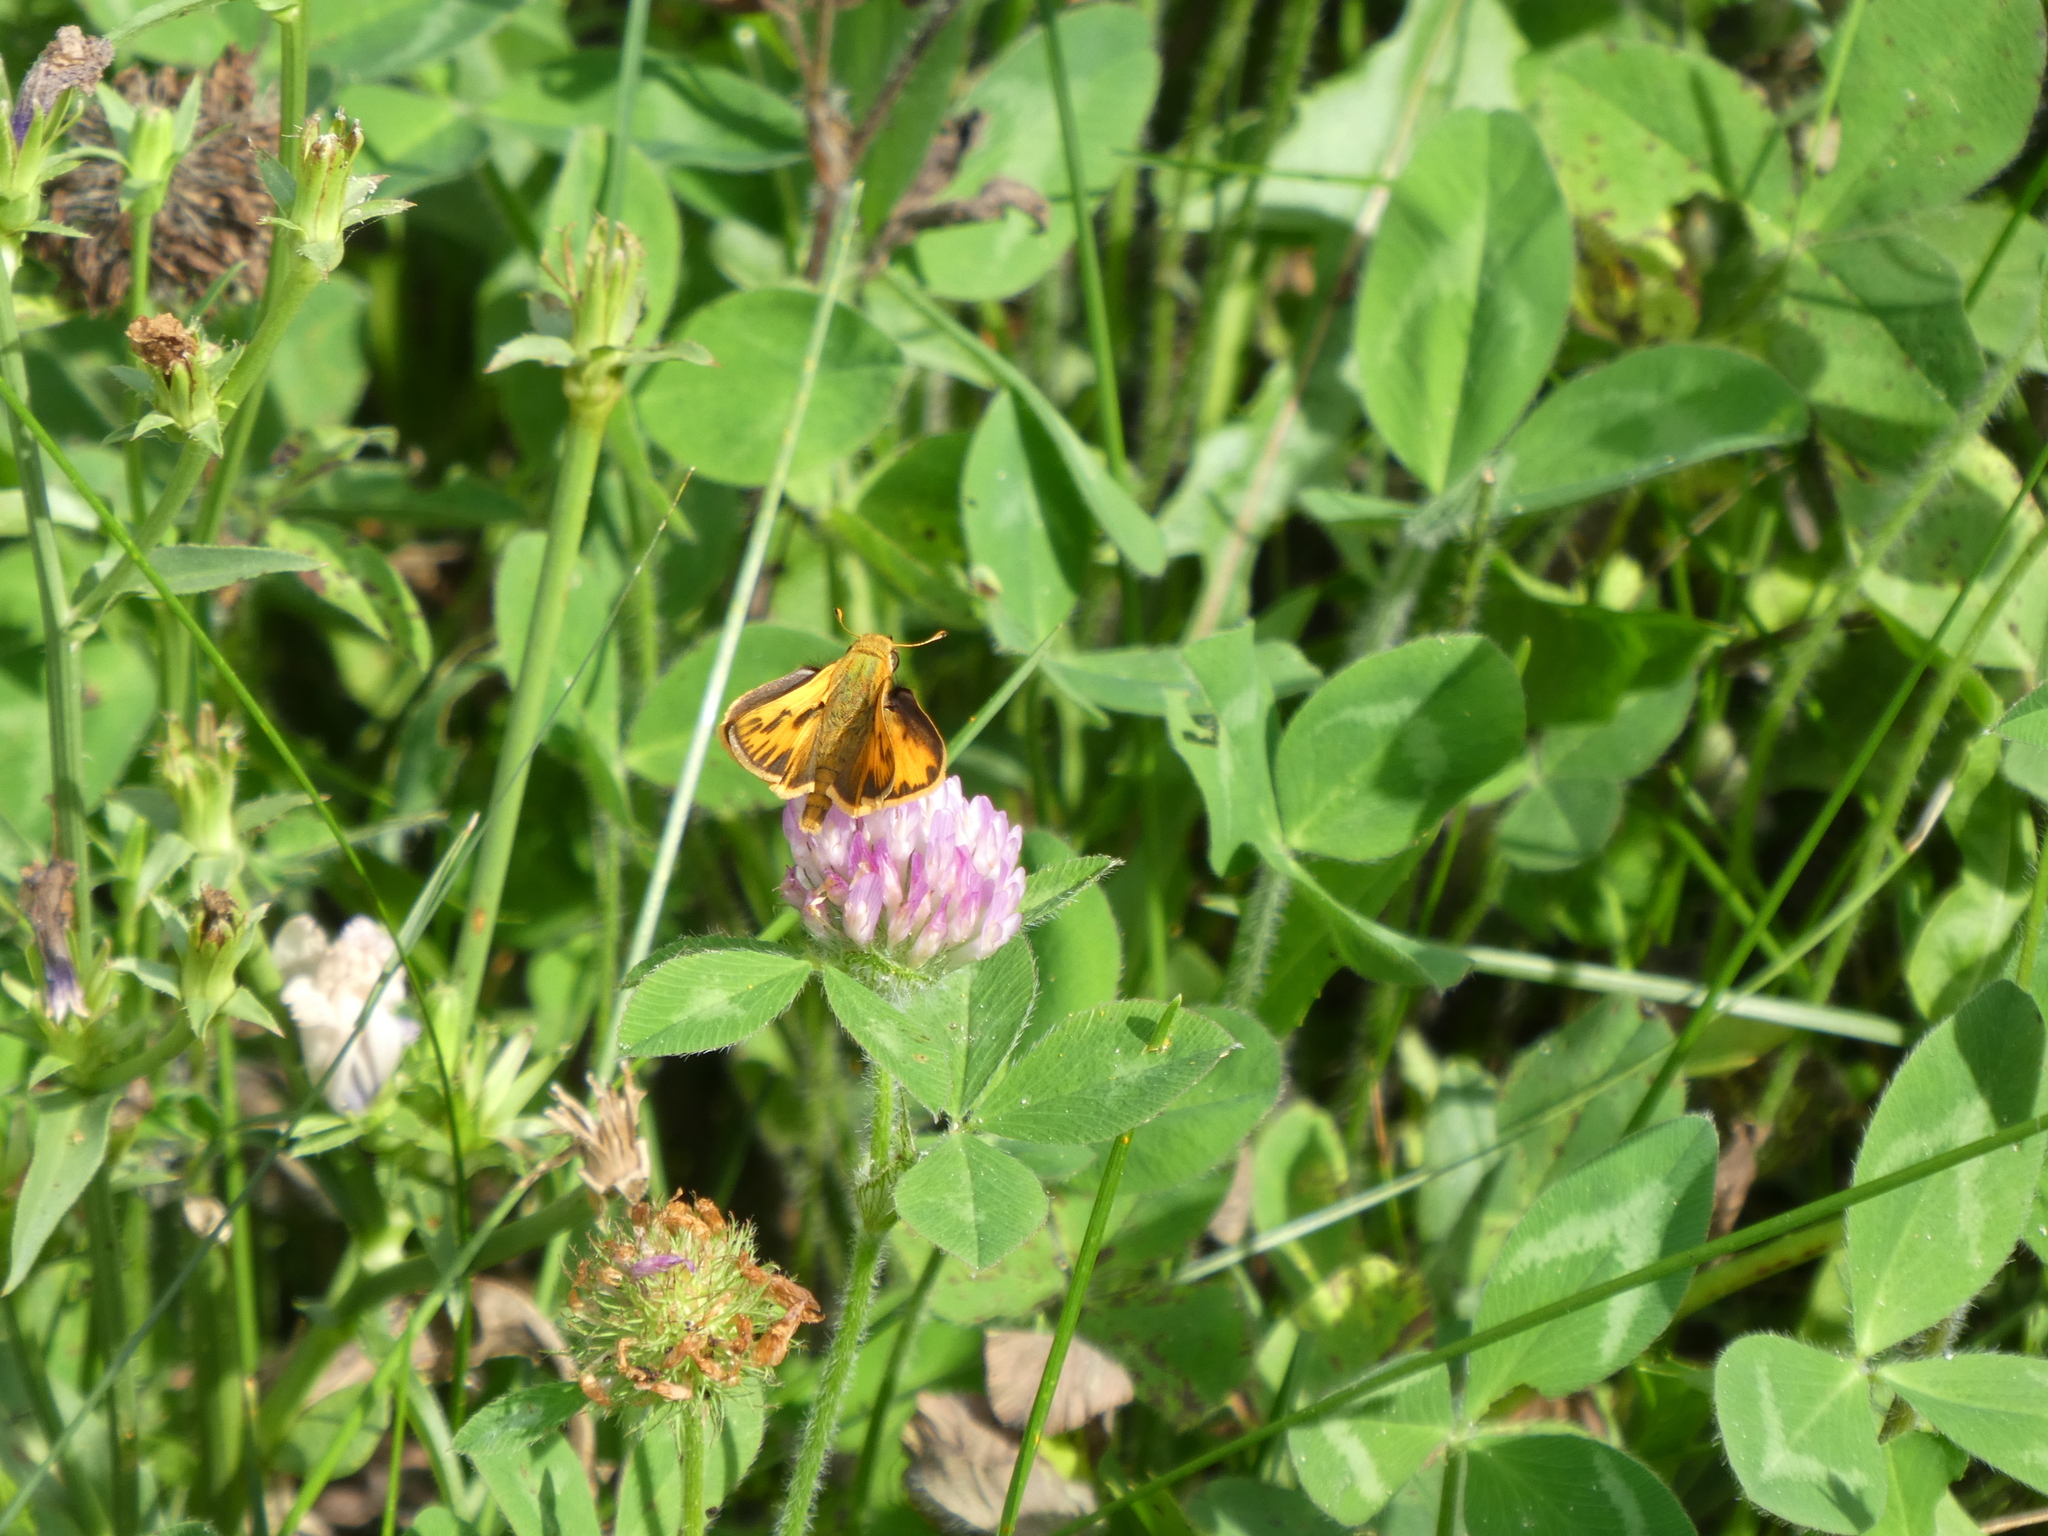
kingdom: Animalia
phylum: Arthropoda
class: Insecta
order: Lepidoptera
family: Hesperiidae
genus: Hylephila
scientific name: Hylephila phyleus
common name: Fiery skipper
